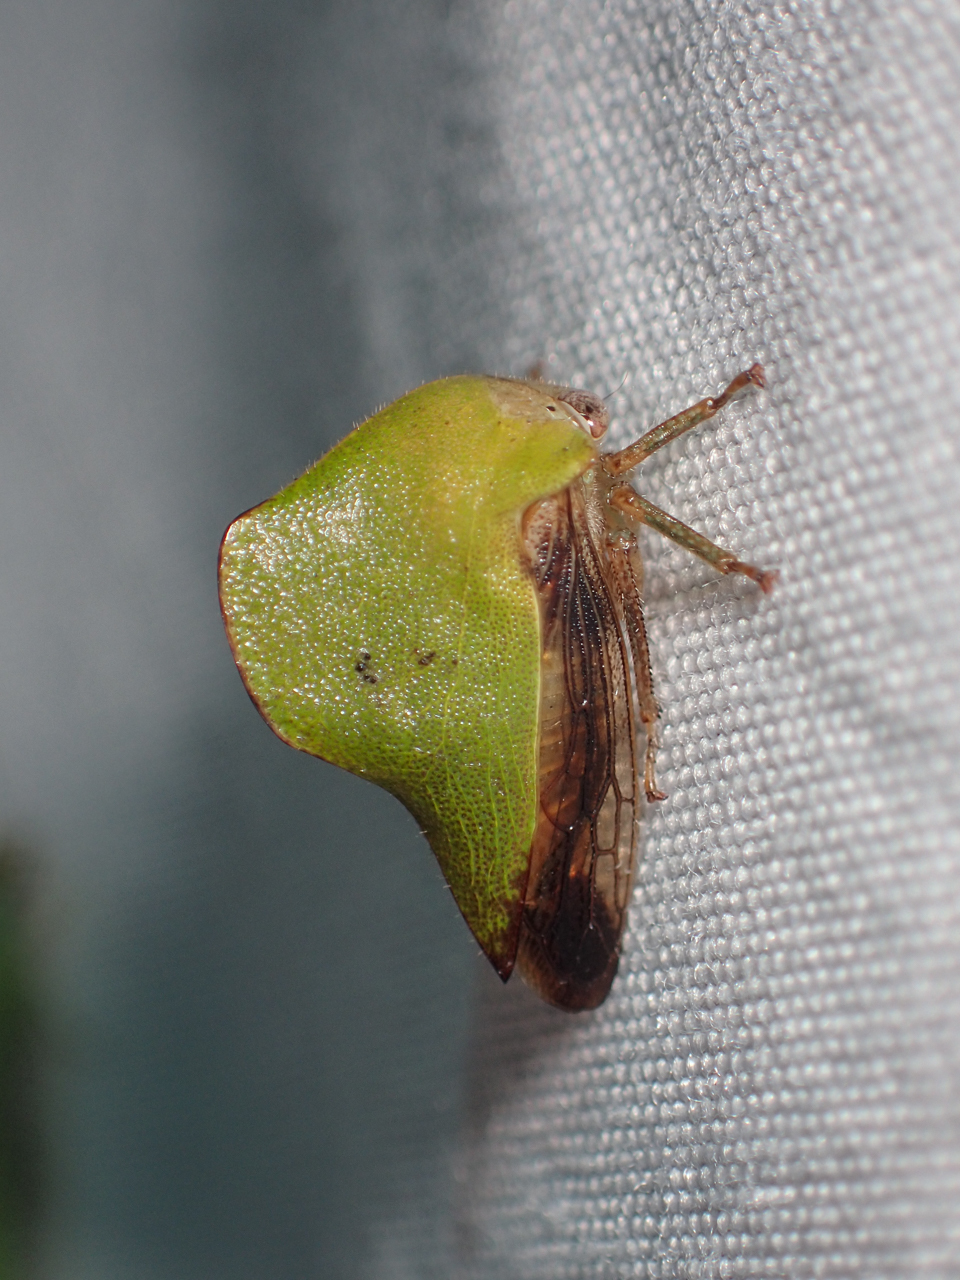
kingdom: Animalia
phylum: Arthropoda
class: Insecta
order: Hemiptera
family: Membracidae
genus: Helonica
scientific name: Helonica excelsa
